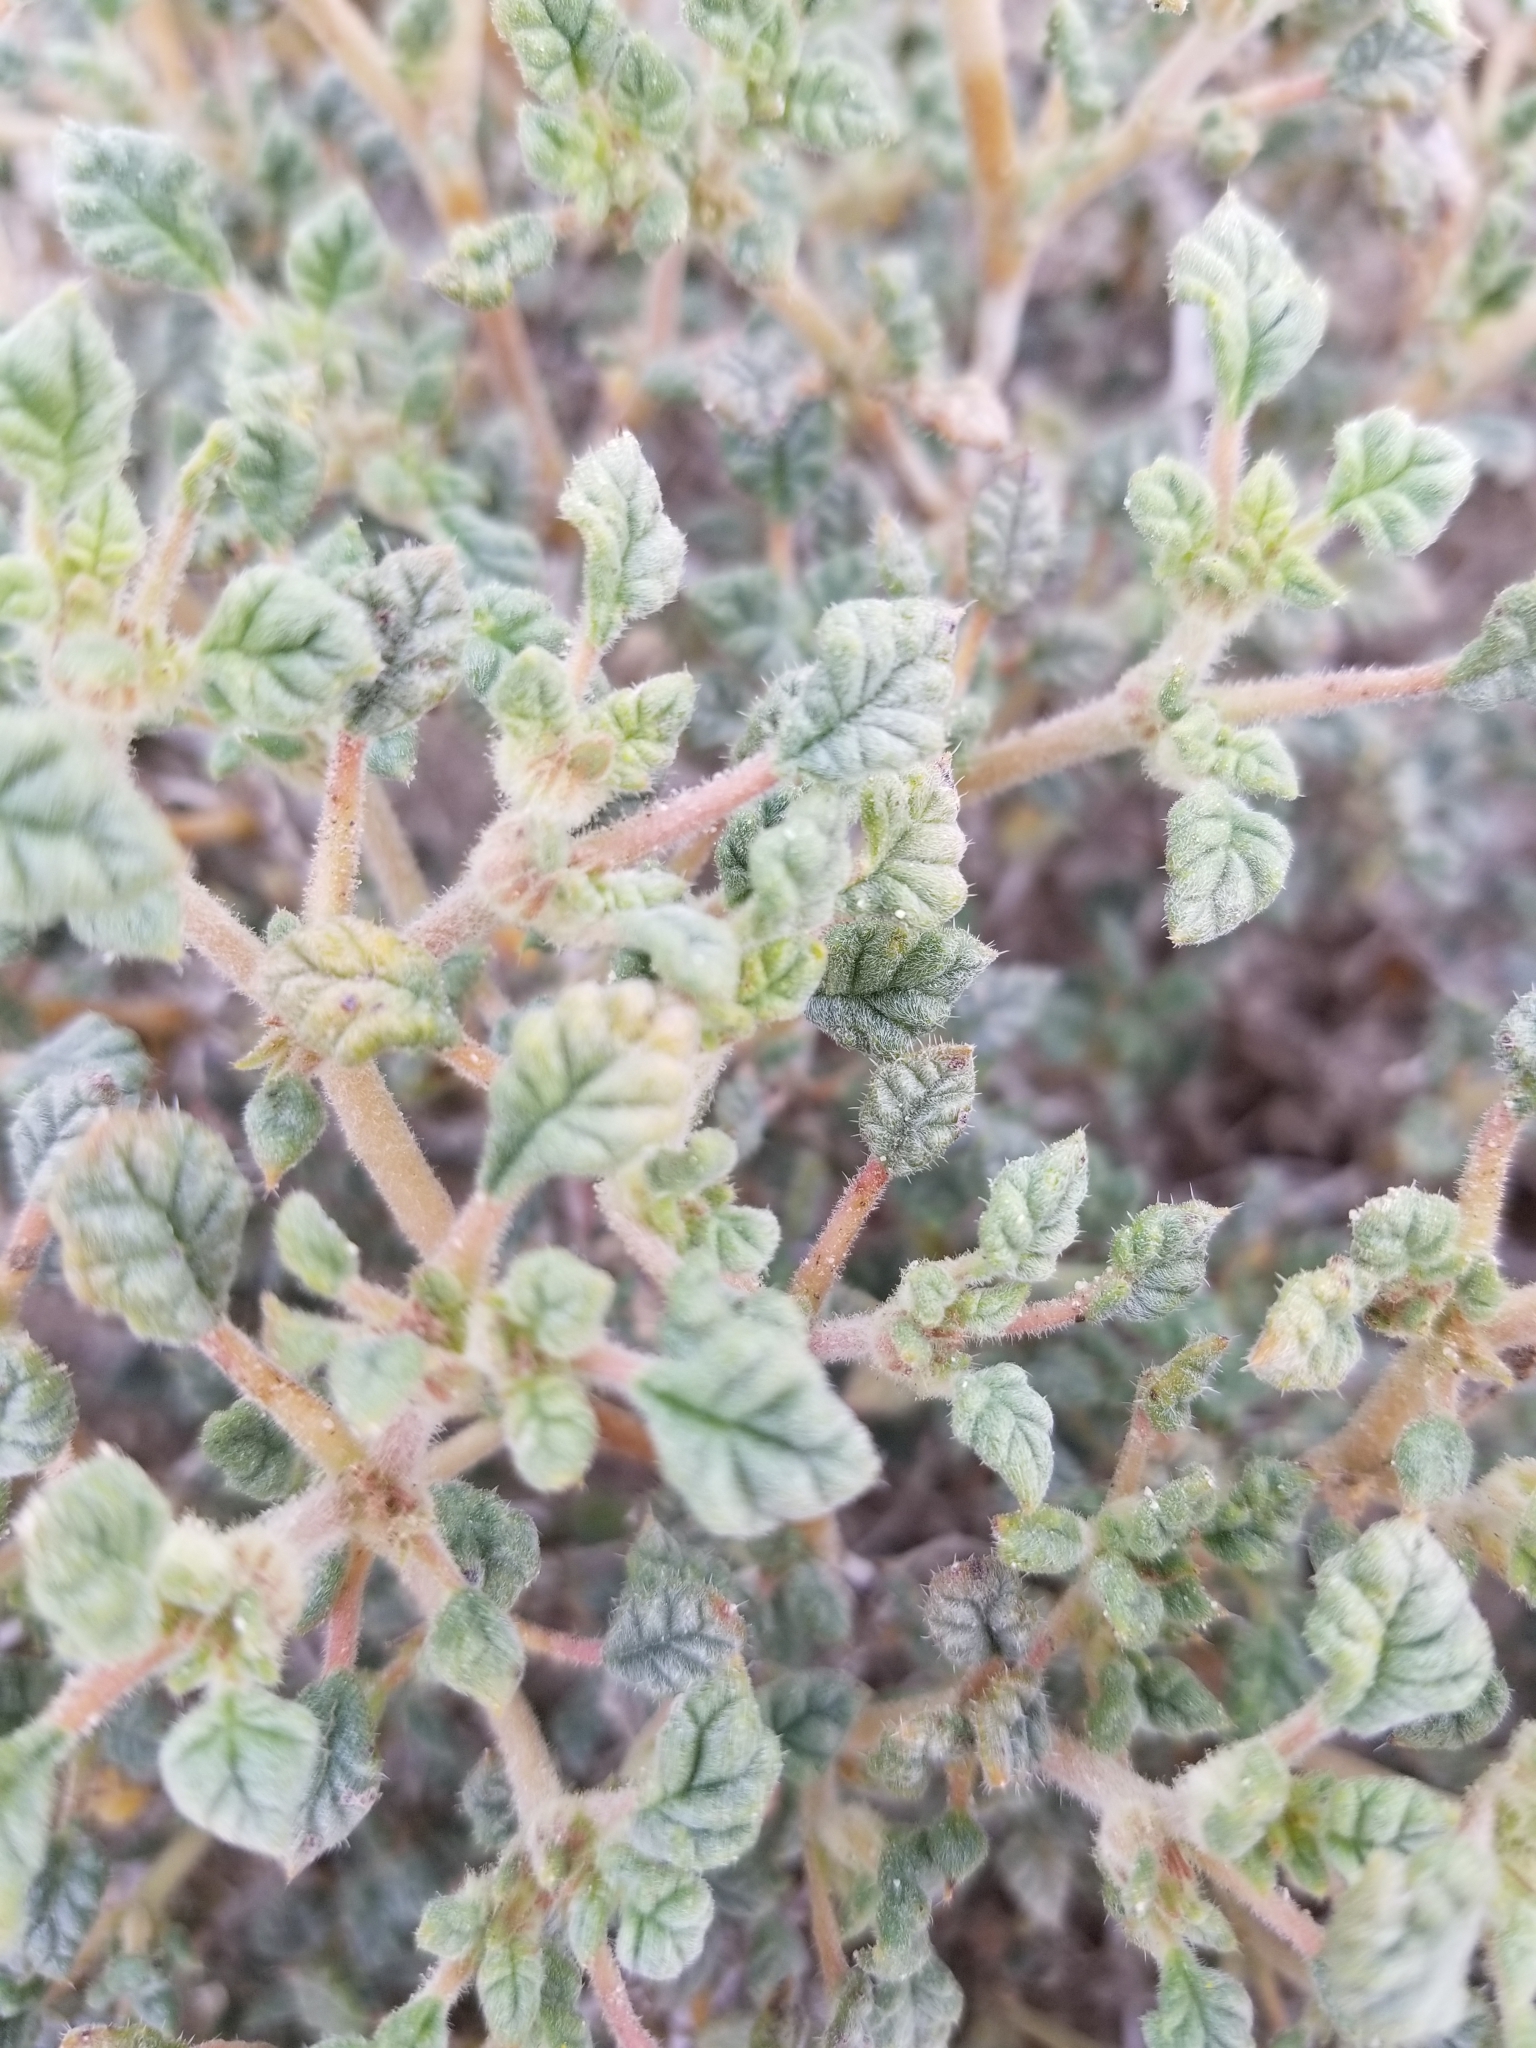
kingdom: Plantae
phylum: Tracheophyta
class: Magnoliopsida
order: Boraginales
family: Ehretiaceae
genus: Tiquilia
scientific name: Tiquilia palmeri
